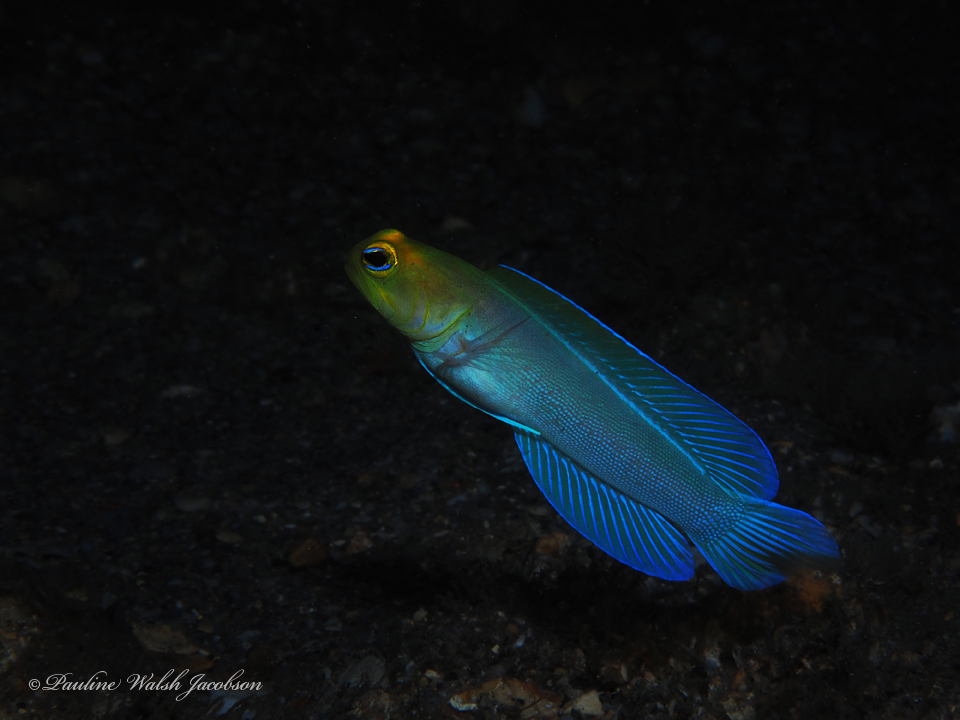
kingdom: Animalia
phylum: Chordata
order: Perciformes
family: Opistognathidae
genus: Opistognathus
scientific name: Opistognathus aurifrons
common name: Yellowhead jawfish
